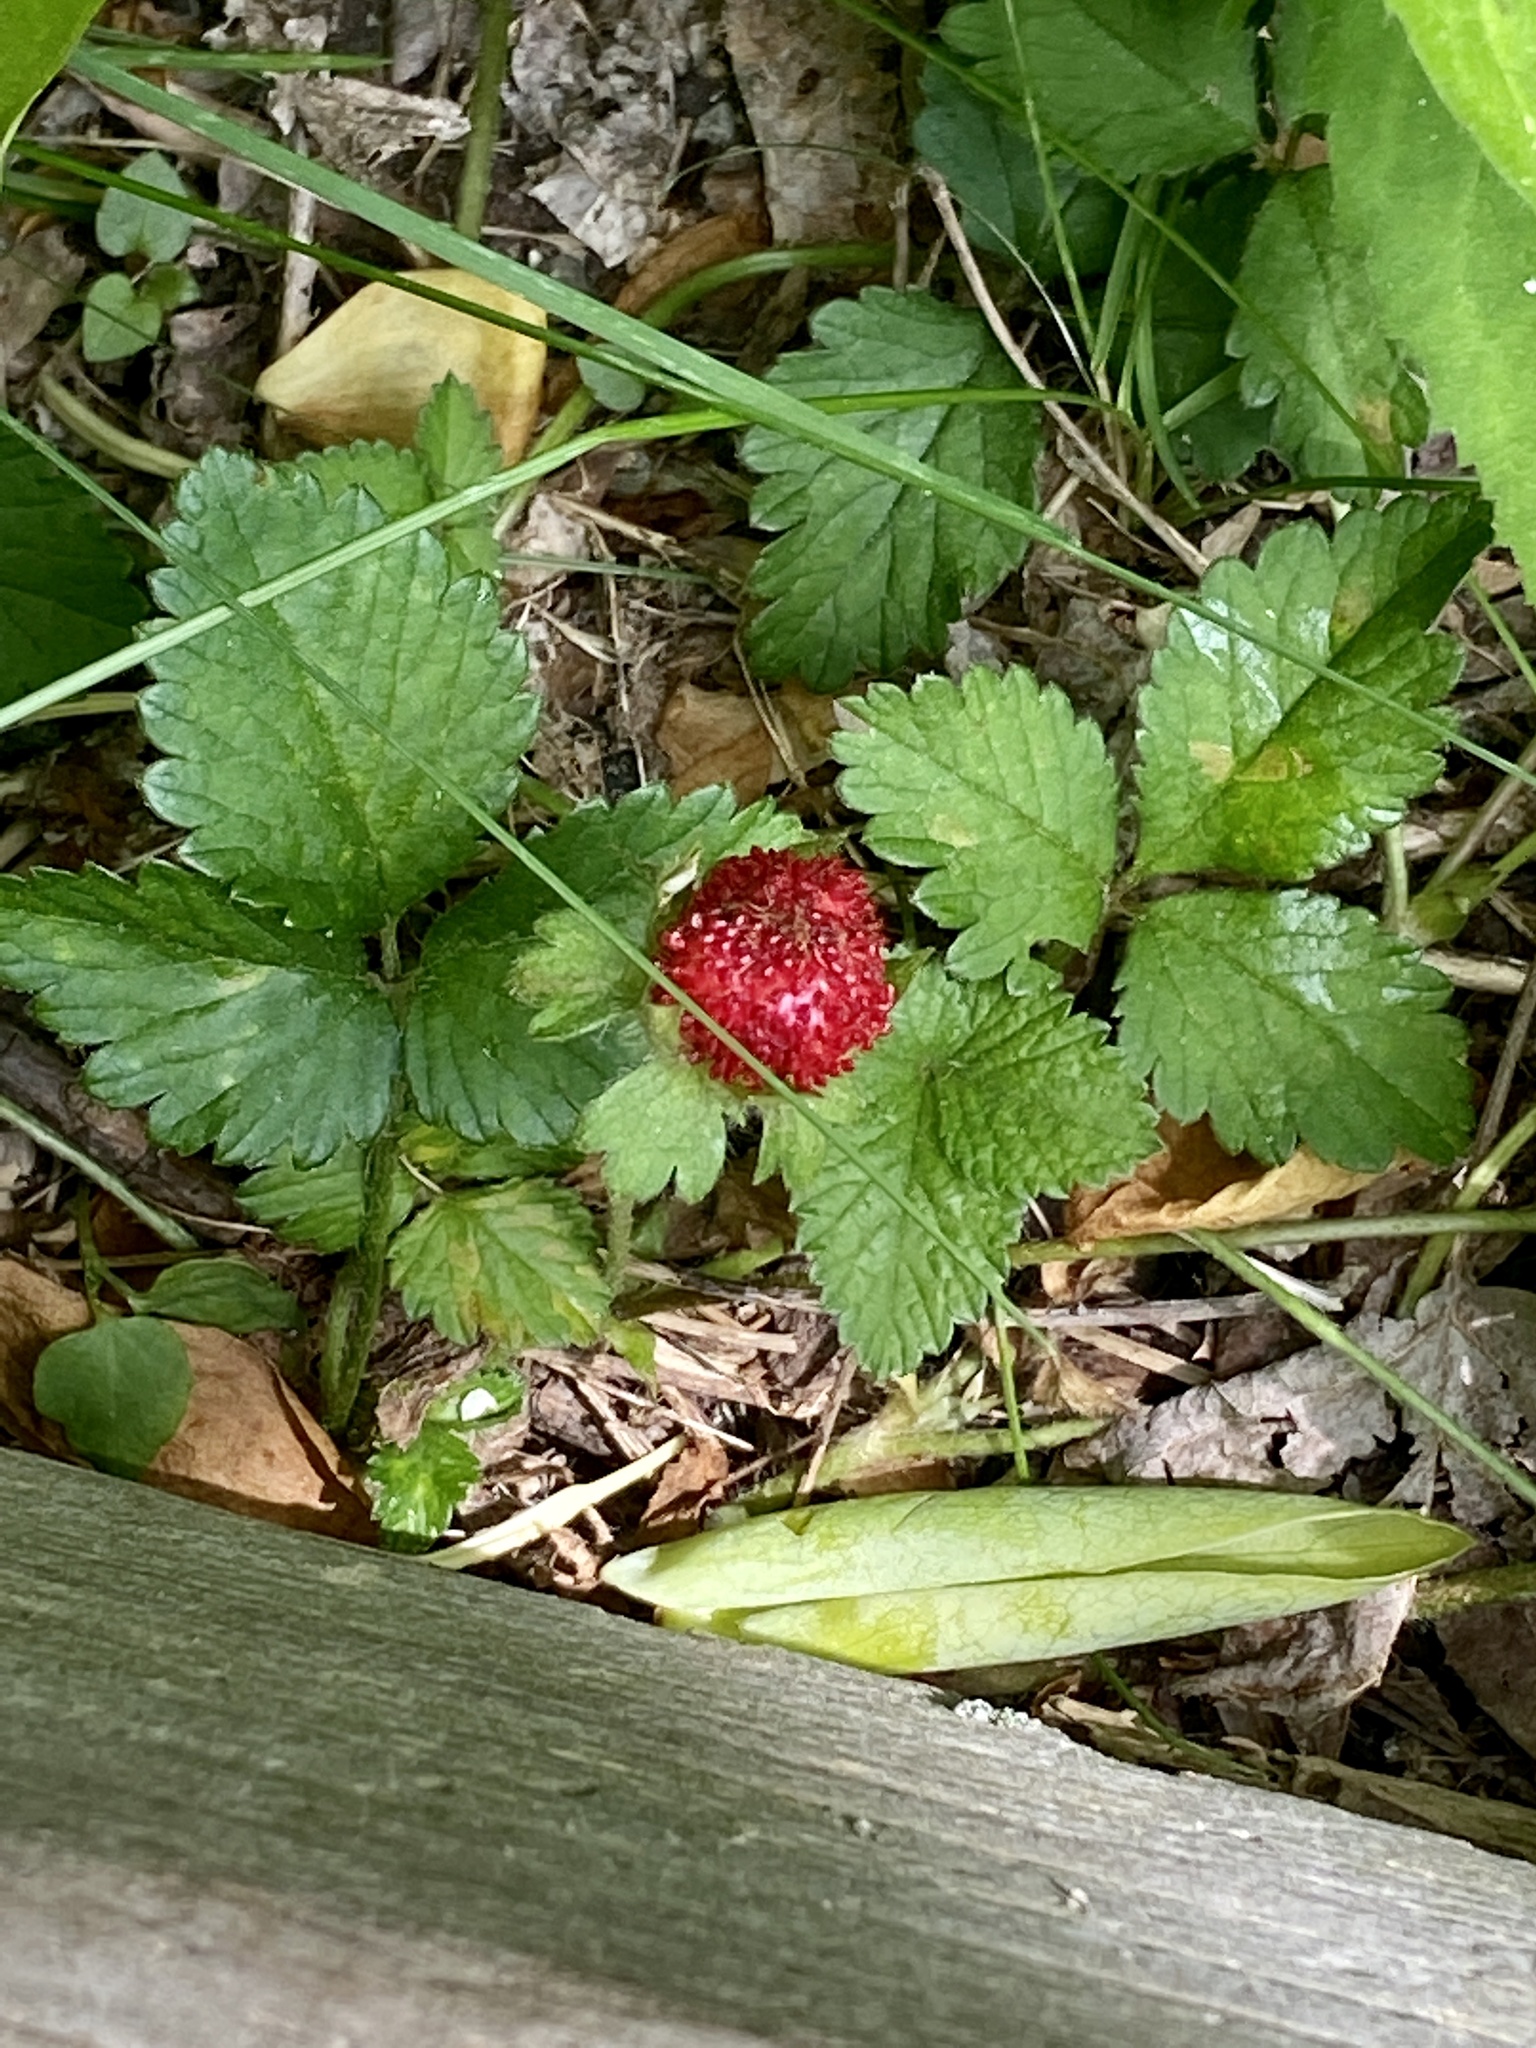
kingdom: Plantae
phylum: Tracheophyta
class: Magnoliopsida
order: Rosales
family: Rosaceae
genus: Potentilla
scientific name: Potentilla indica
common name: Yellow-flowered strawberry
